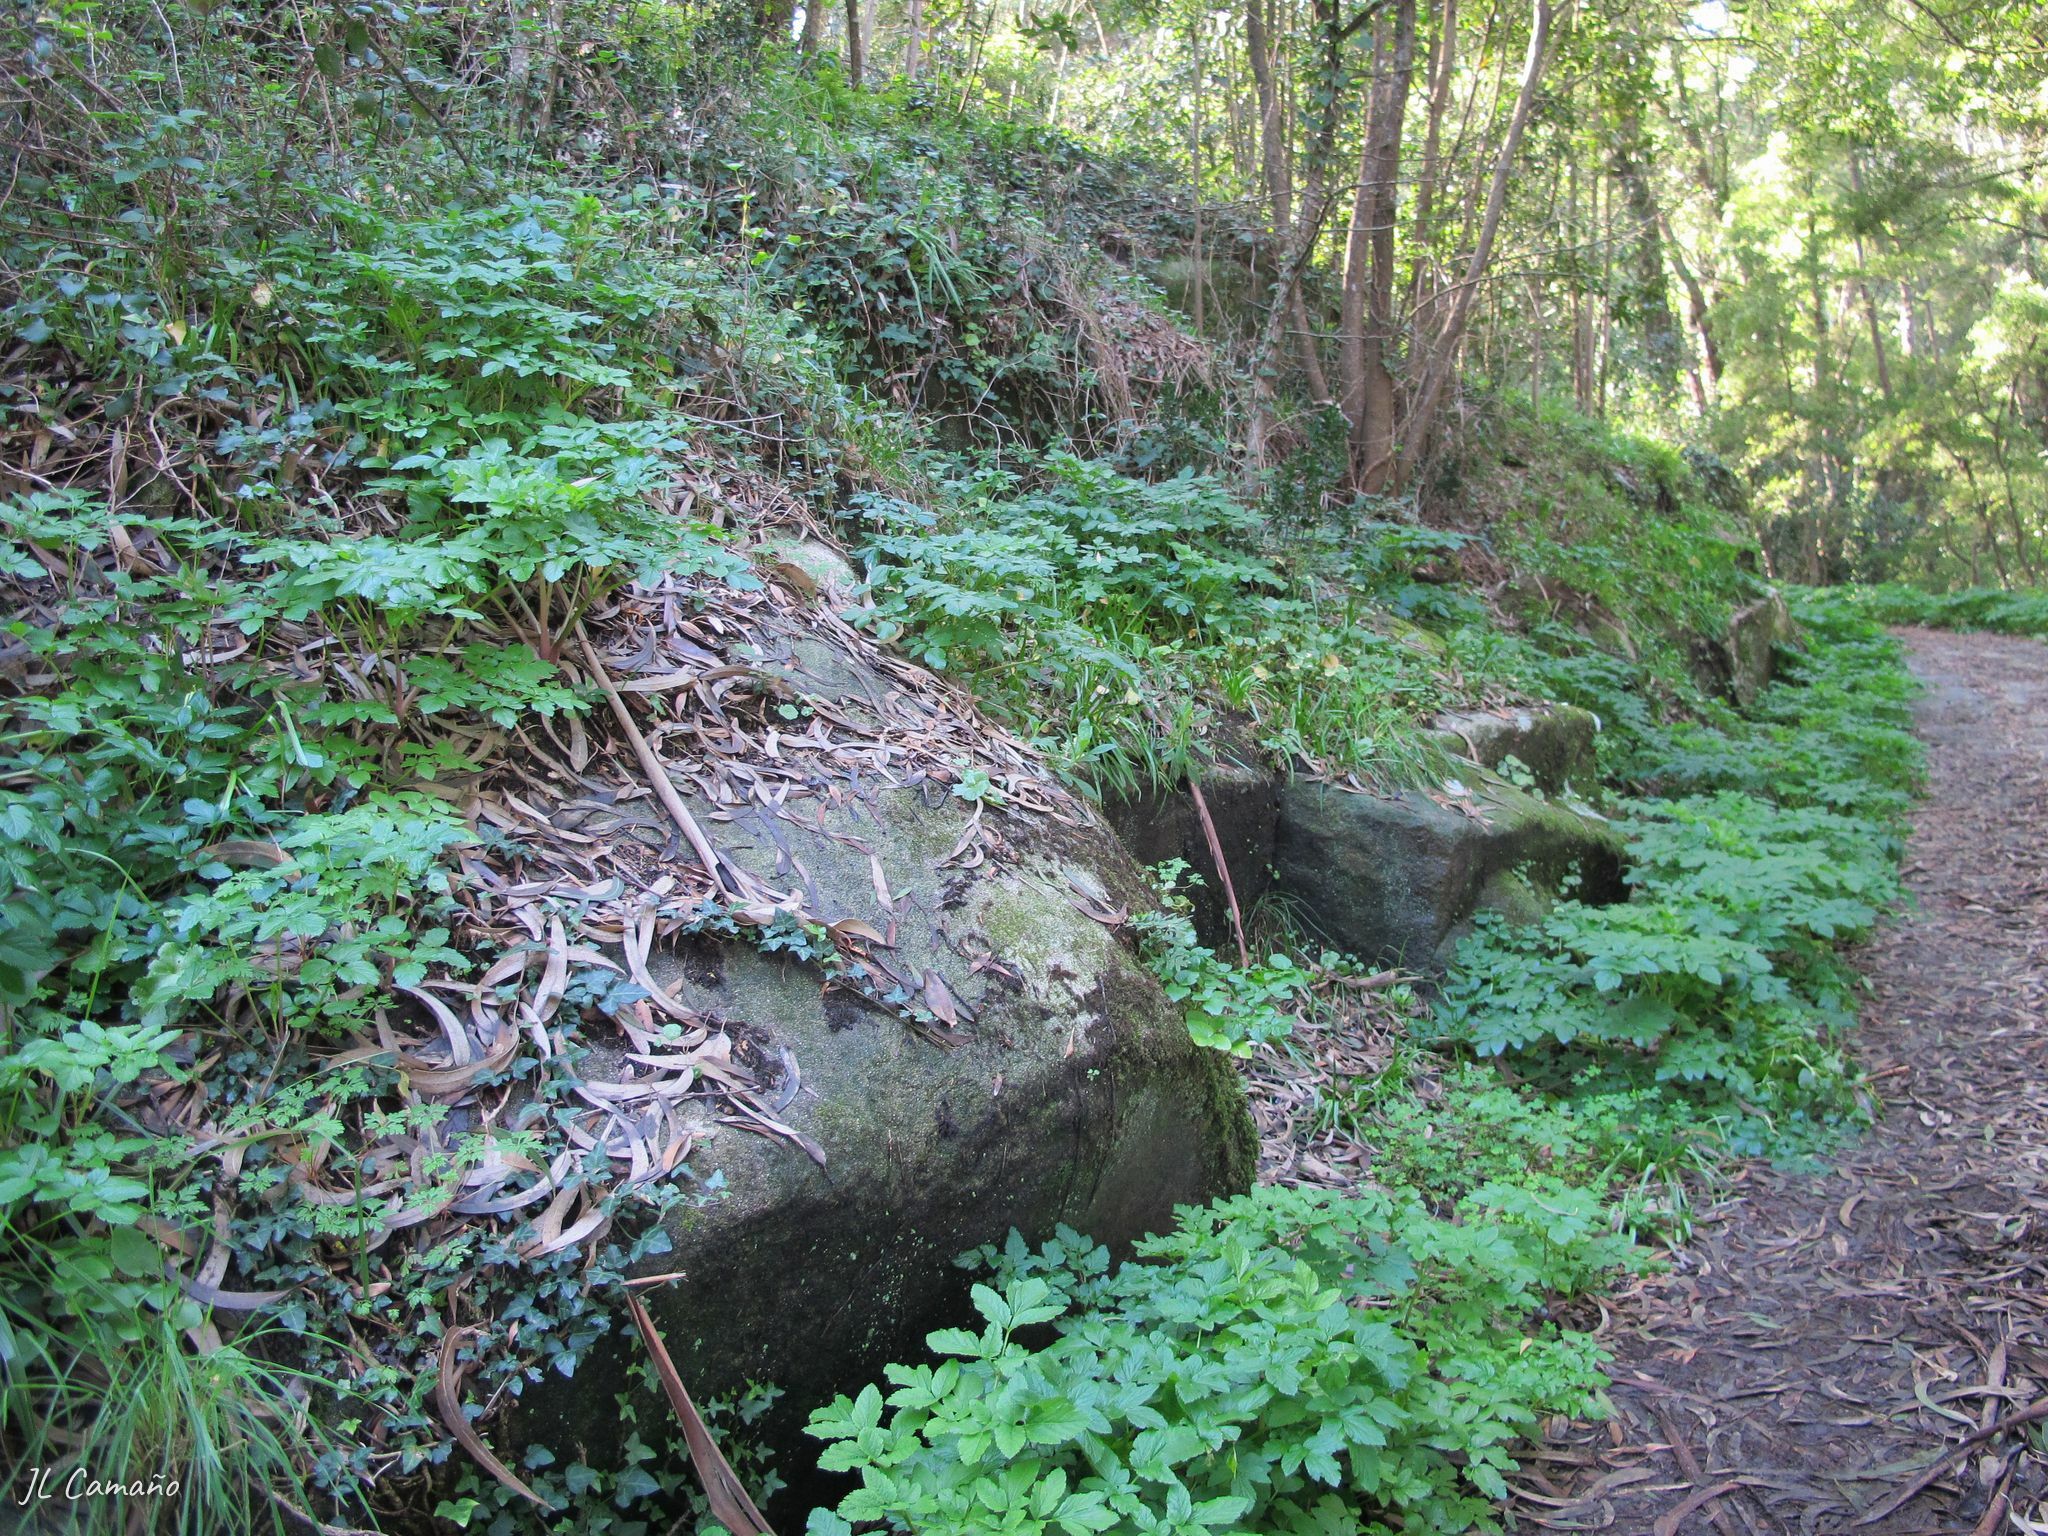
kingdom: Plantae
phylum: Marchantiophyta
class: Marchantiopsida
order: Marchantiales
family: Corsiniaceae
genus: Corsinia
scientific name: Corsinia coriandrina
